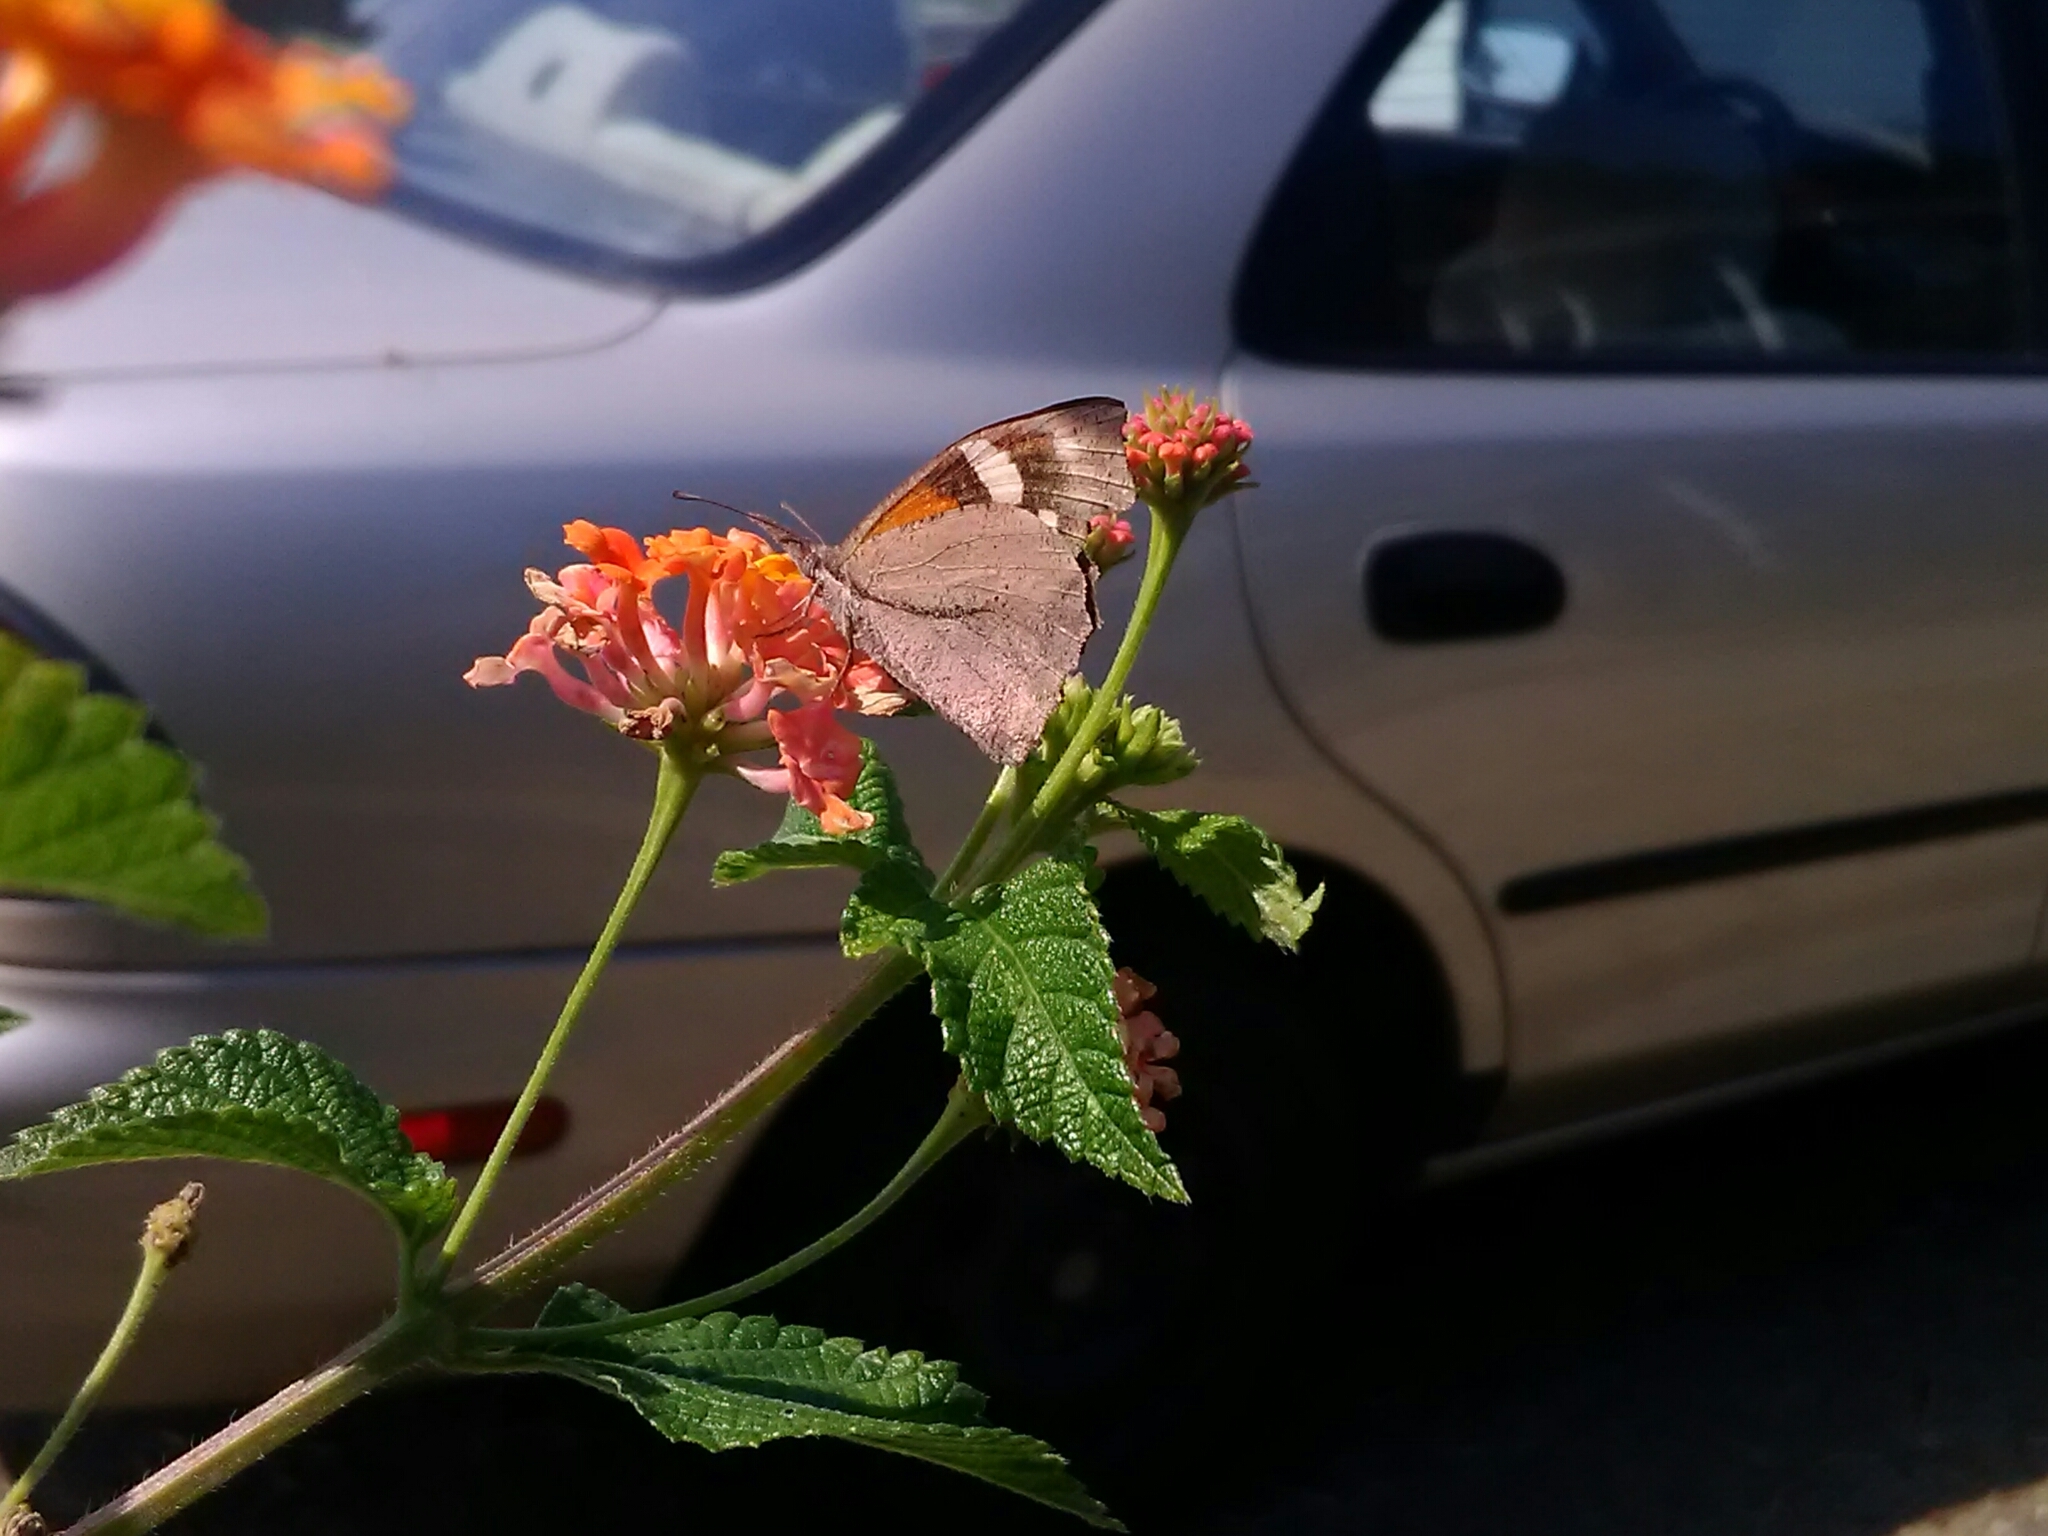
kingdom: Animalia
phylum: Arthropoda
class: Insecta
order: Lepidoptera
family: Nymphalidae
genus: Libytheana
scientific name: Libytheana carinenta
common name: American snout
